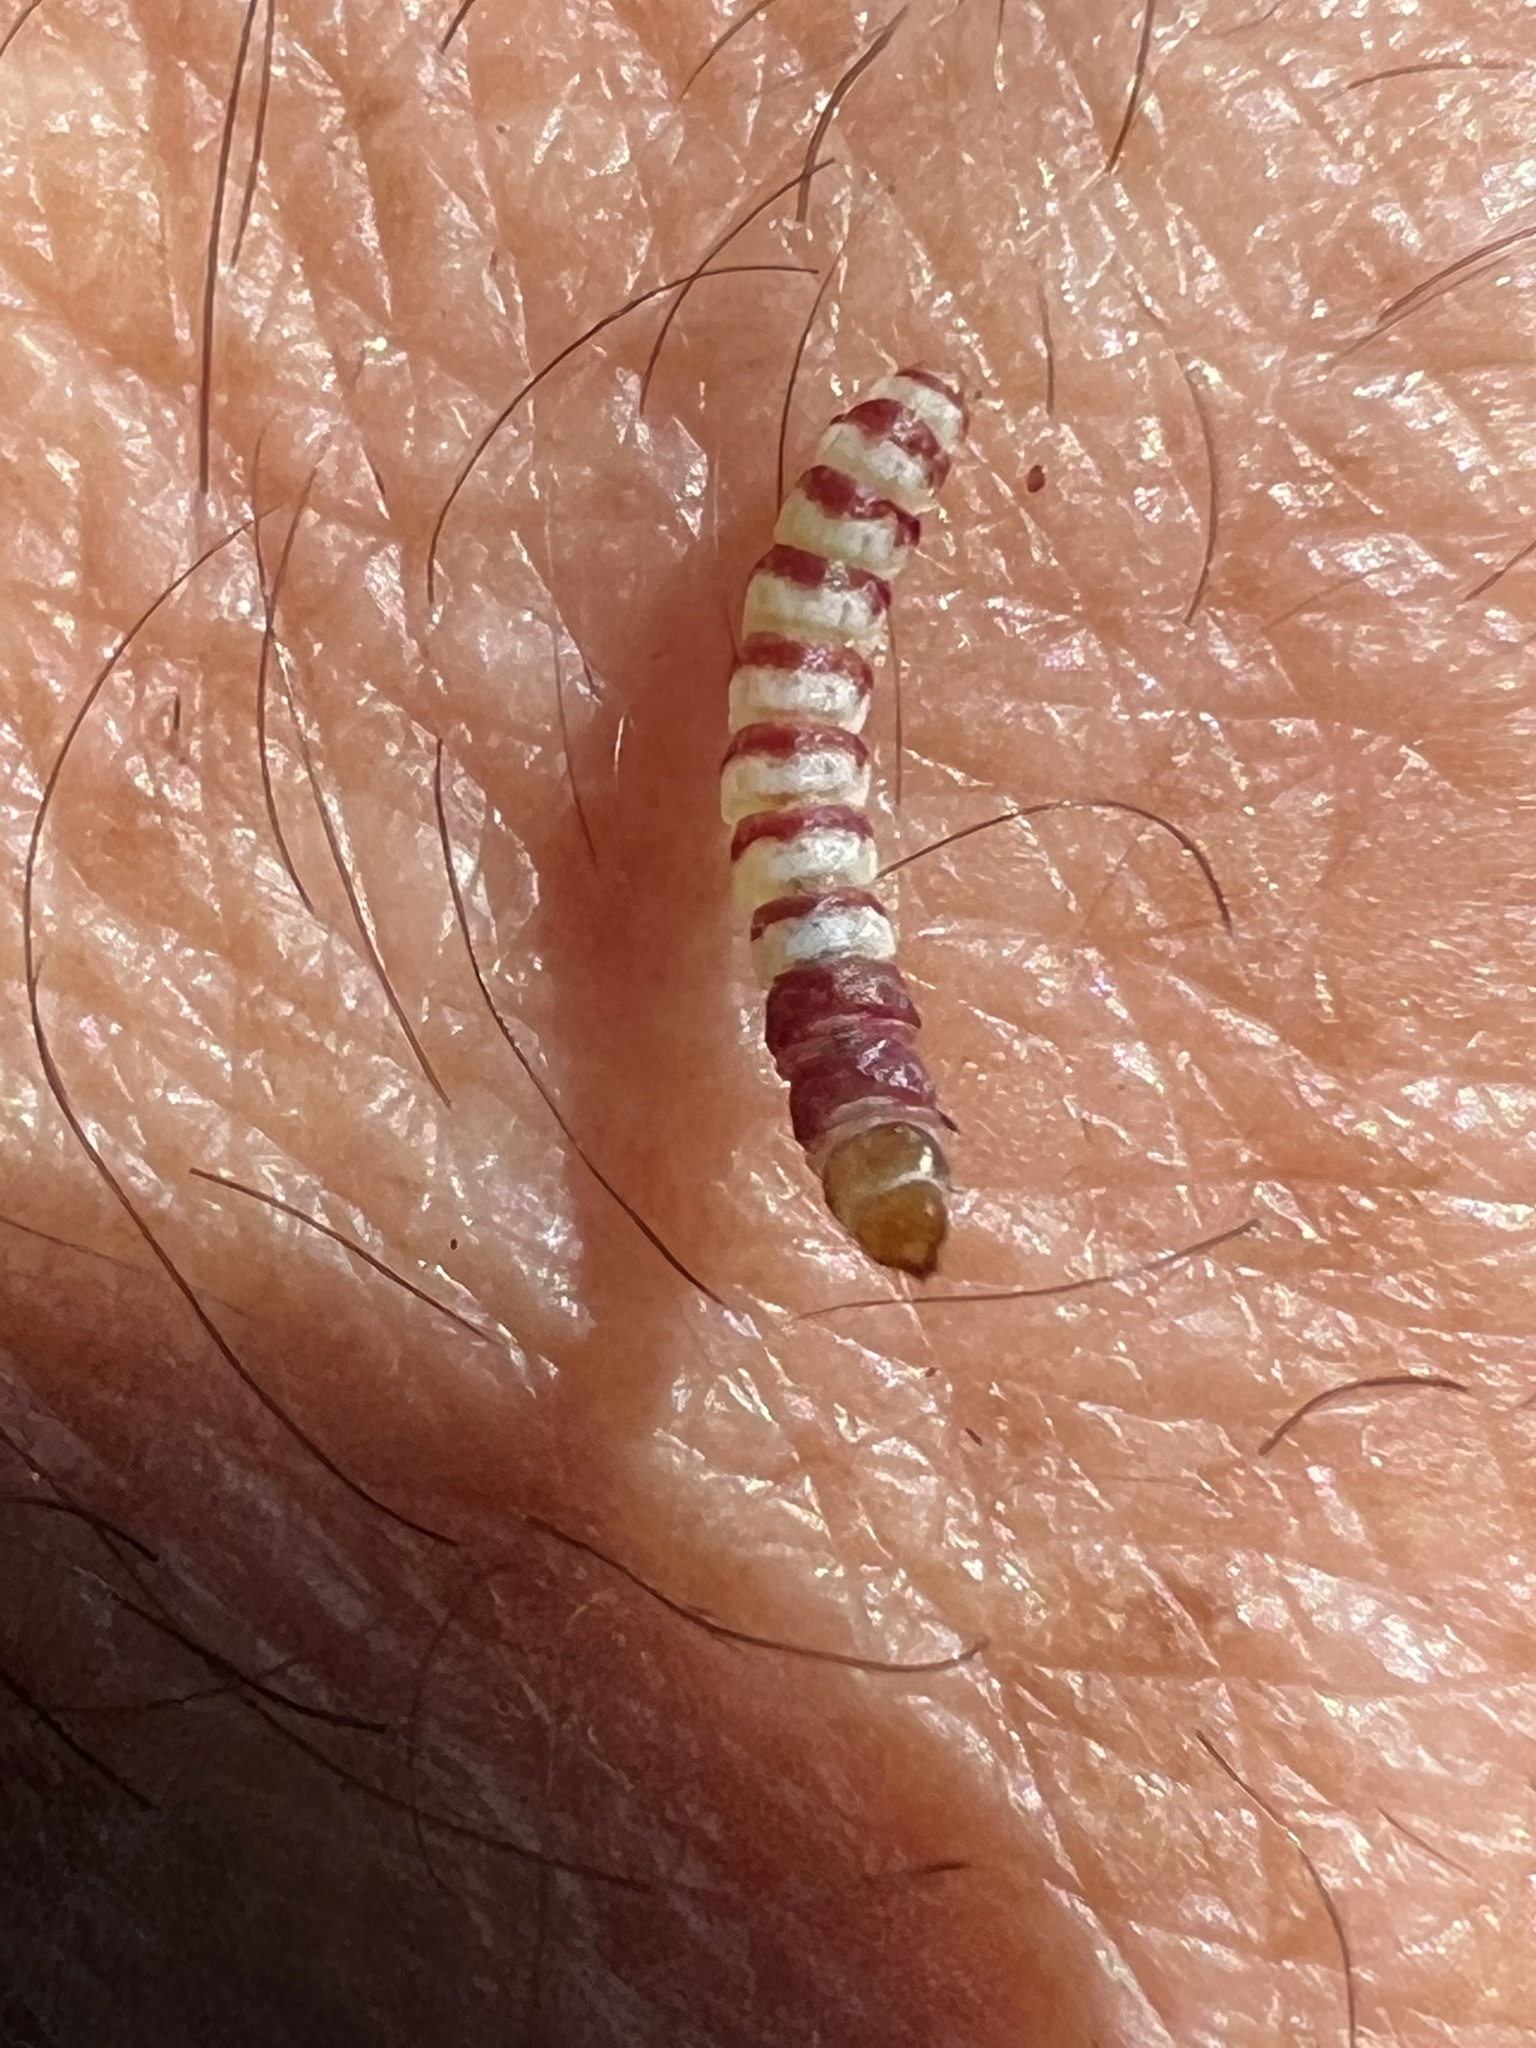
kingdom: Animalia
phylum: Arthropoda
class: Insecta
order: Lepidoptera
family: Gelechiidae
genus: Arogalea
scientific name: Arogalea cristifasciella
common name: White stripe-backed moth
